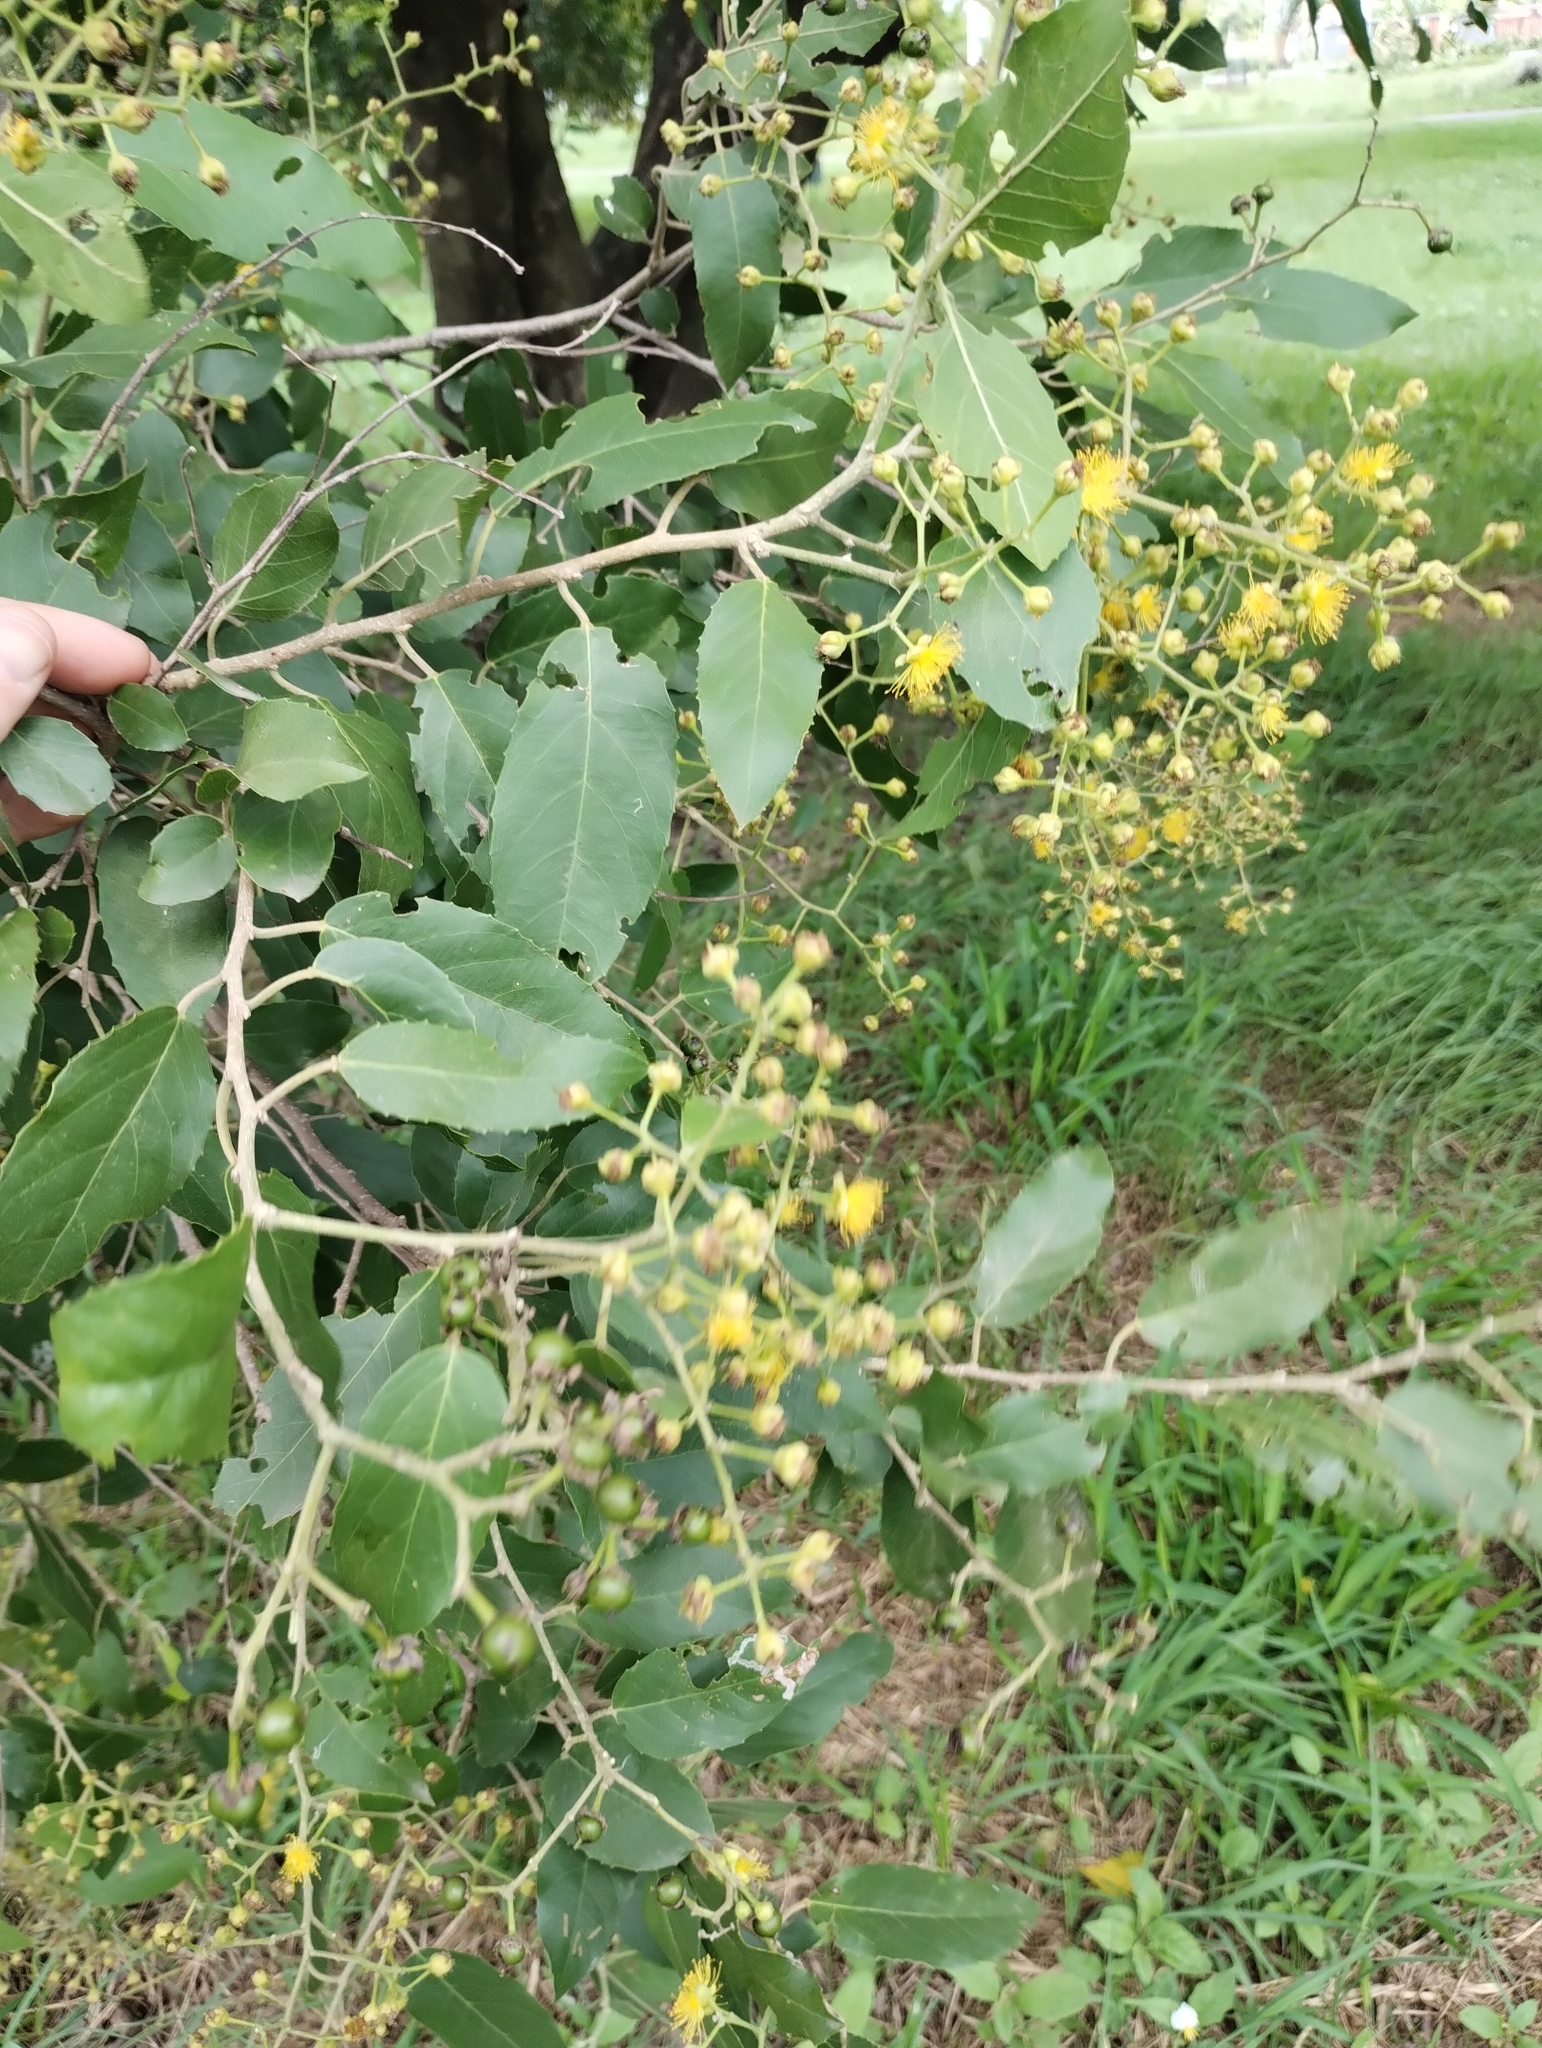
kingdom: Plantae
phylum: Tracheophyta
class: Magnoliopsida
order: Malpighiales
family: Salicaceae
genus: Banara
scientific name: Banara arguta
